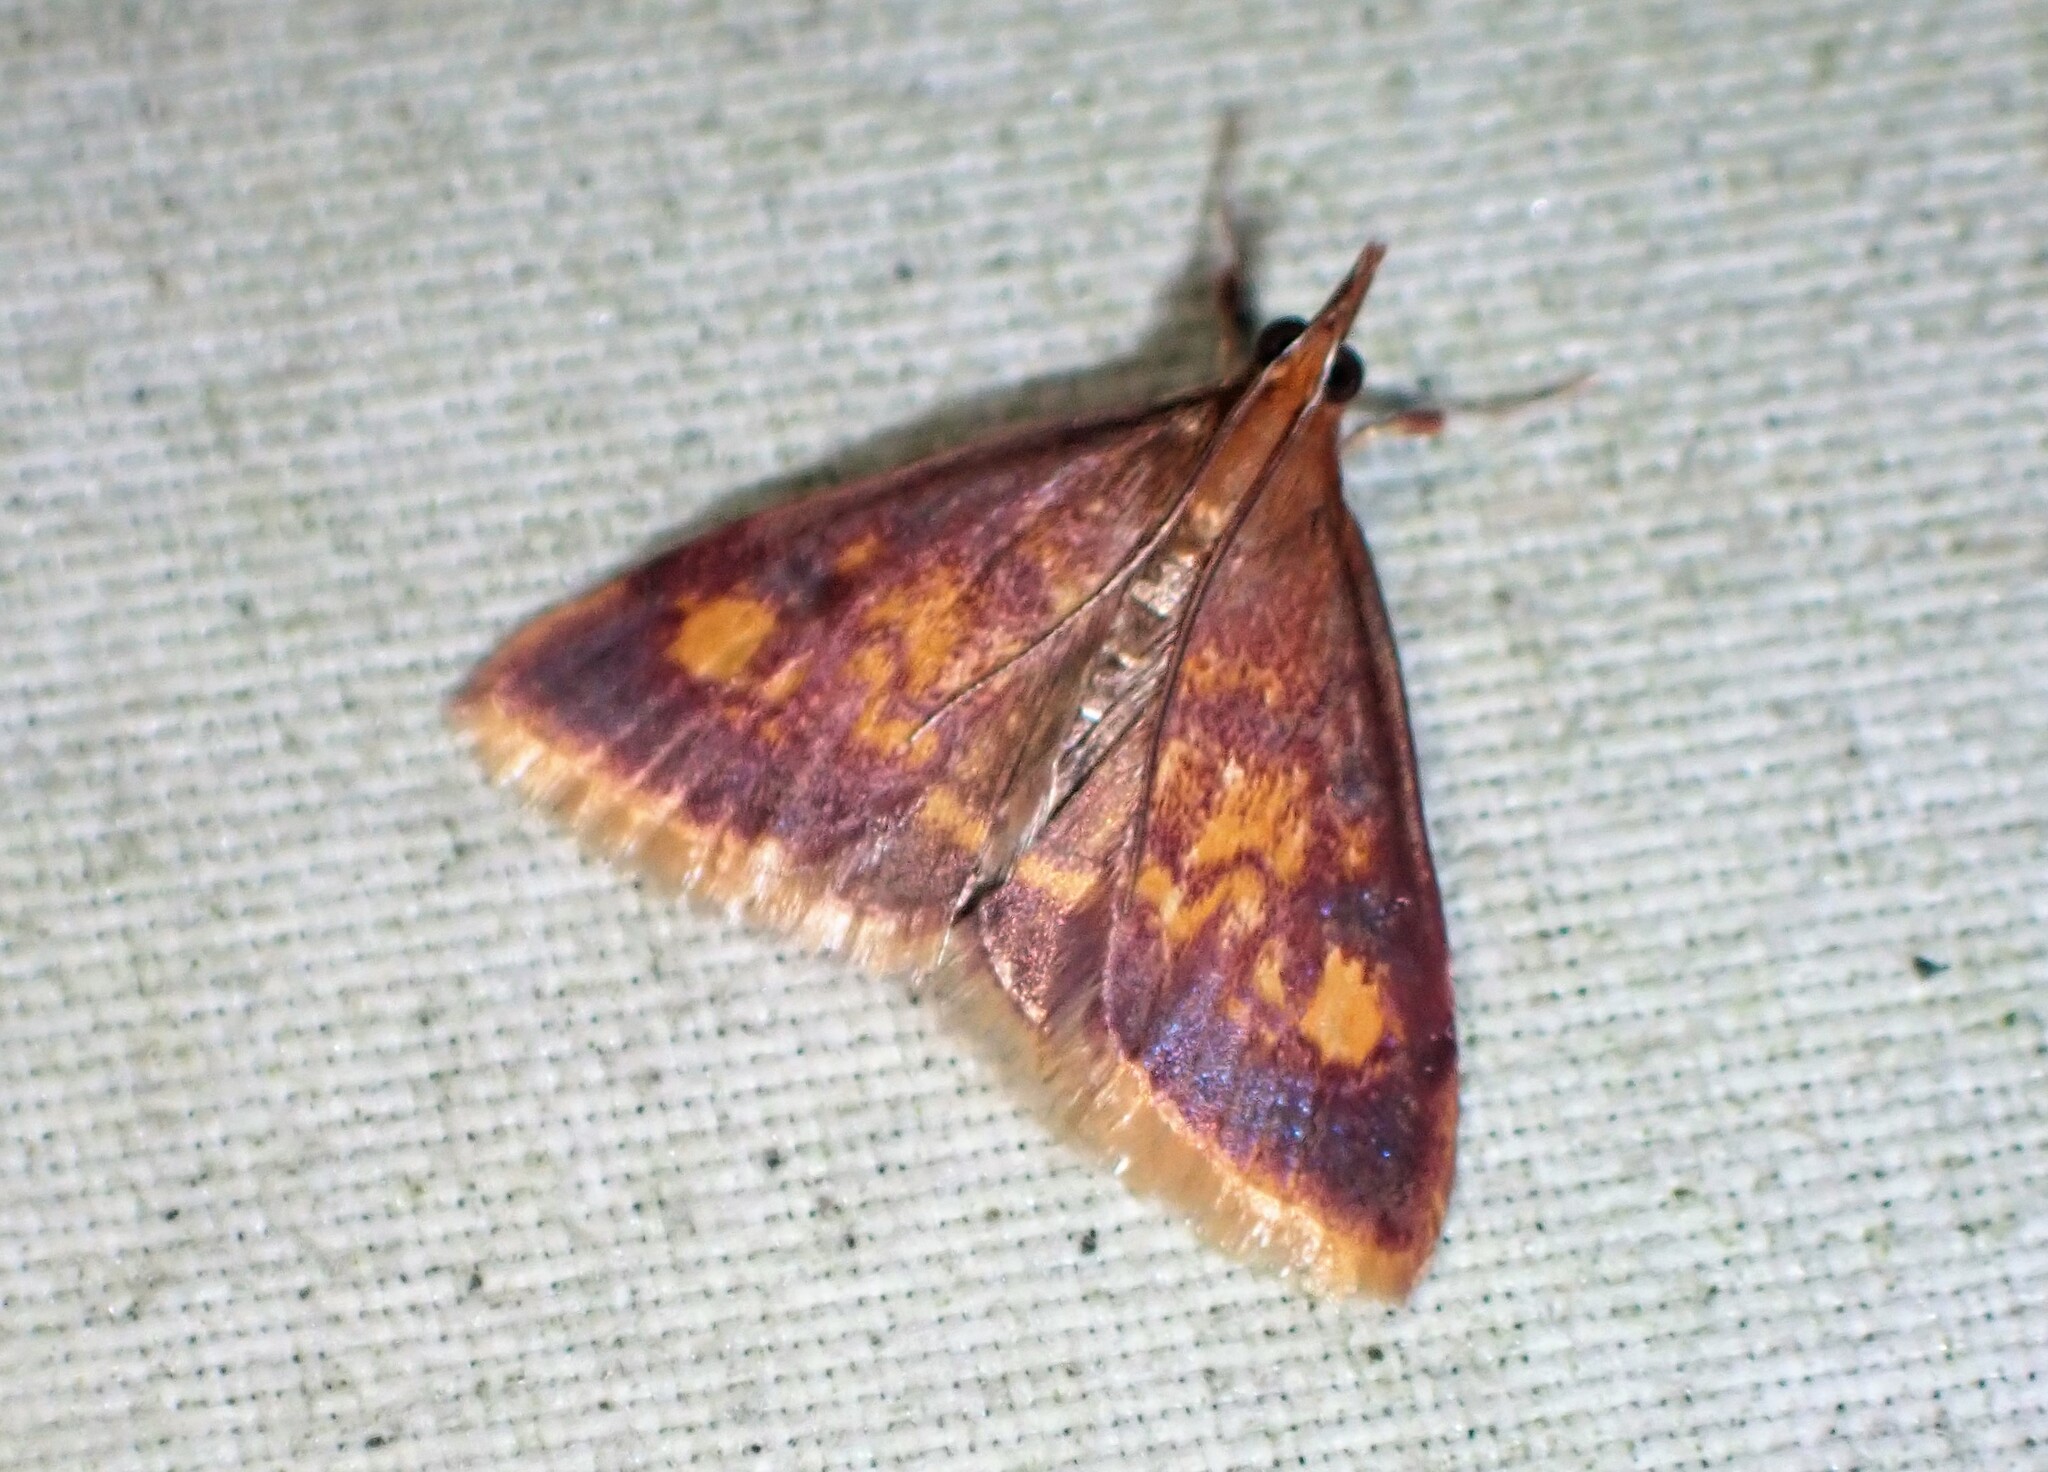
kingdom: Animalia
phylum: Arthropoda
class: Insecta
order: Lepidoptera
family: Crambidae
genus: Pyrausta
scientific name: Pyrausta acrionalis
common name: Mint-loving pyrausta moth
